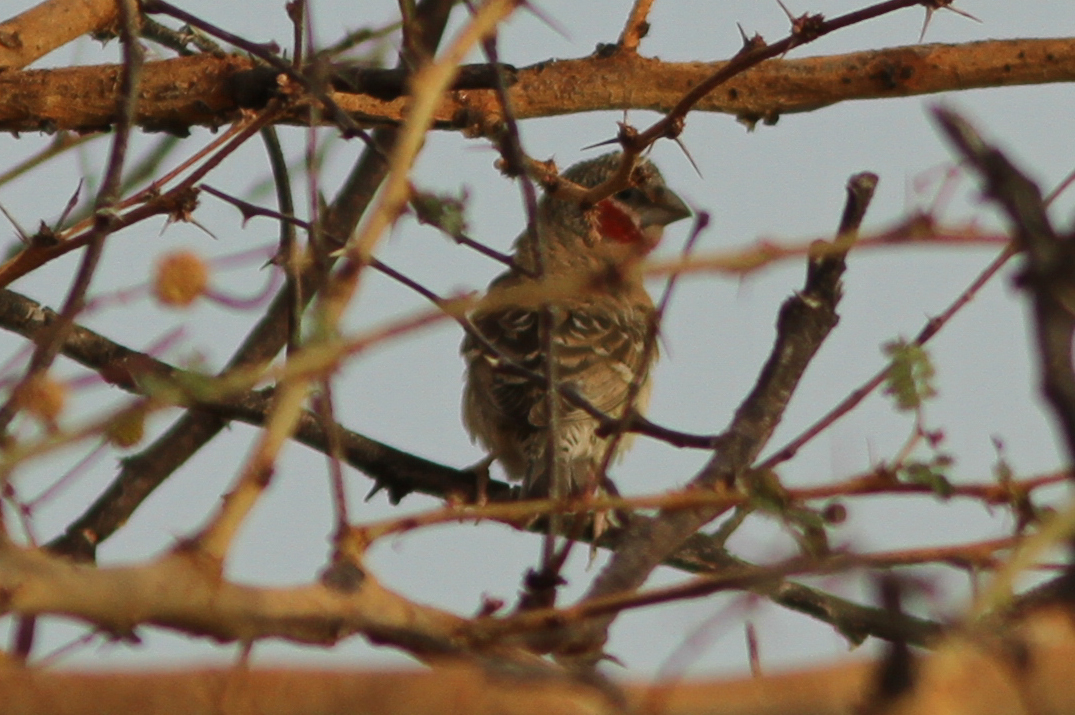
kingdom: Animalia
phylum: Chordata
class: Aves
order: Passeriformes
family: Estrildidae
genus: Amadina
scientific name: Amadina fasciata
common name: Cut-throat finch
